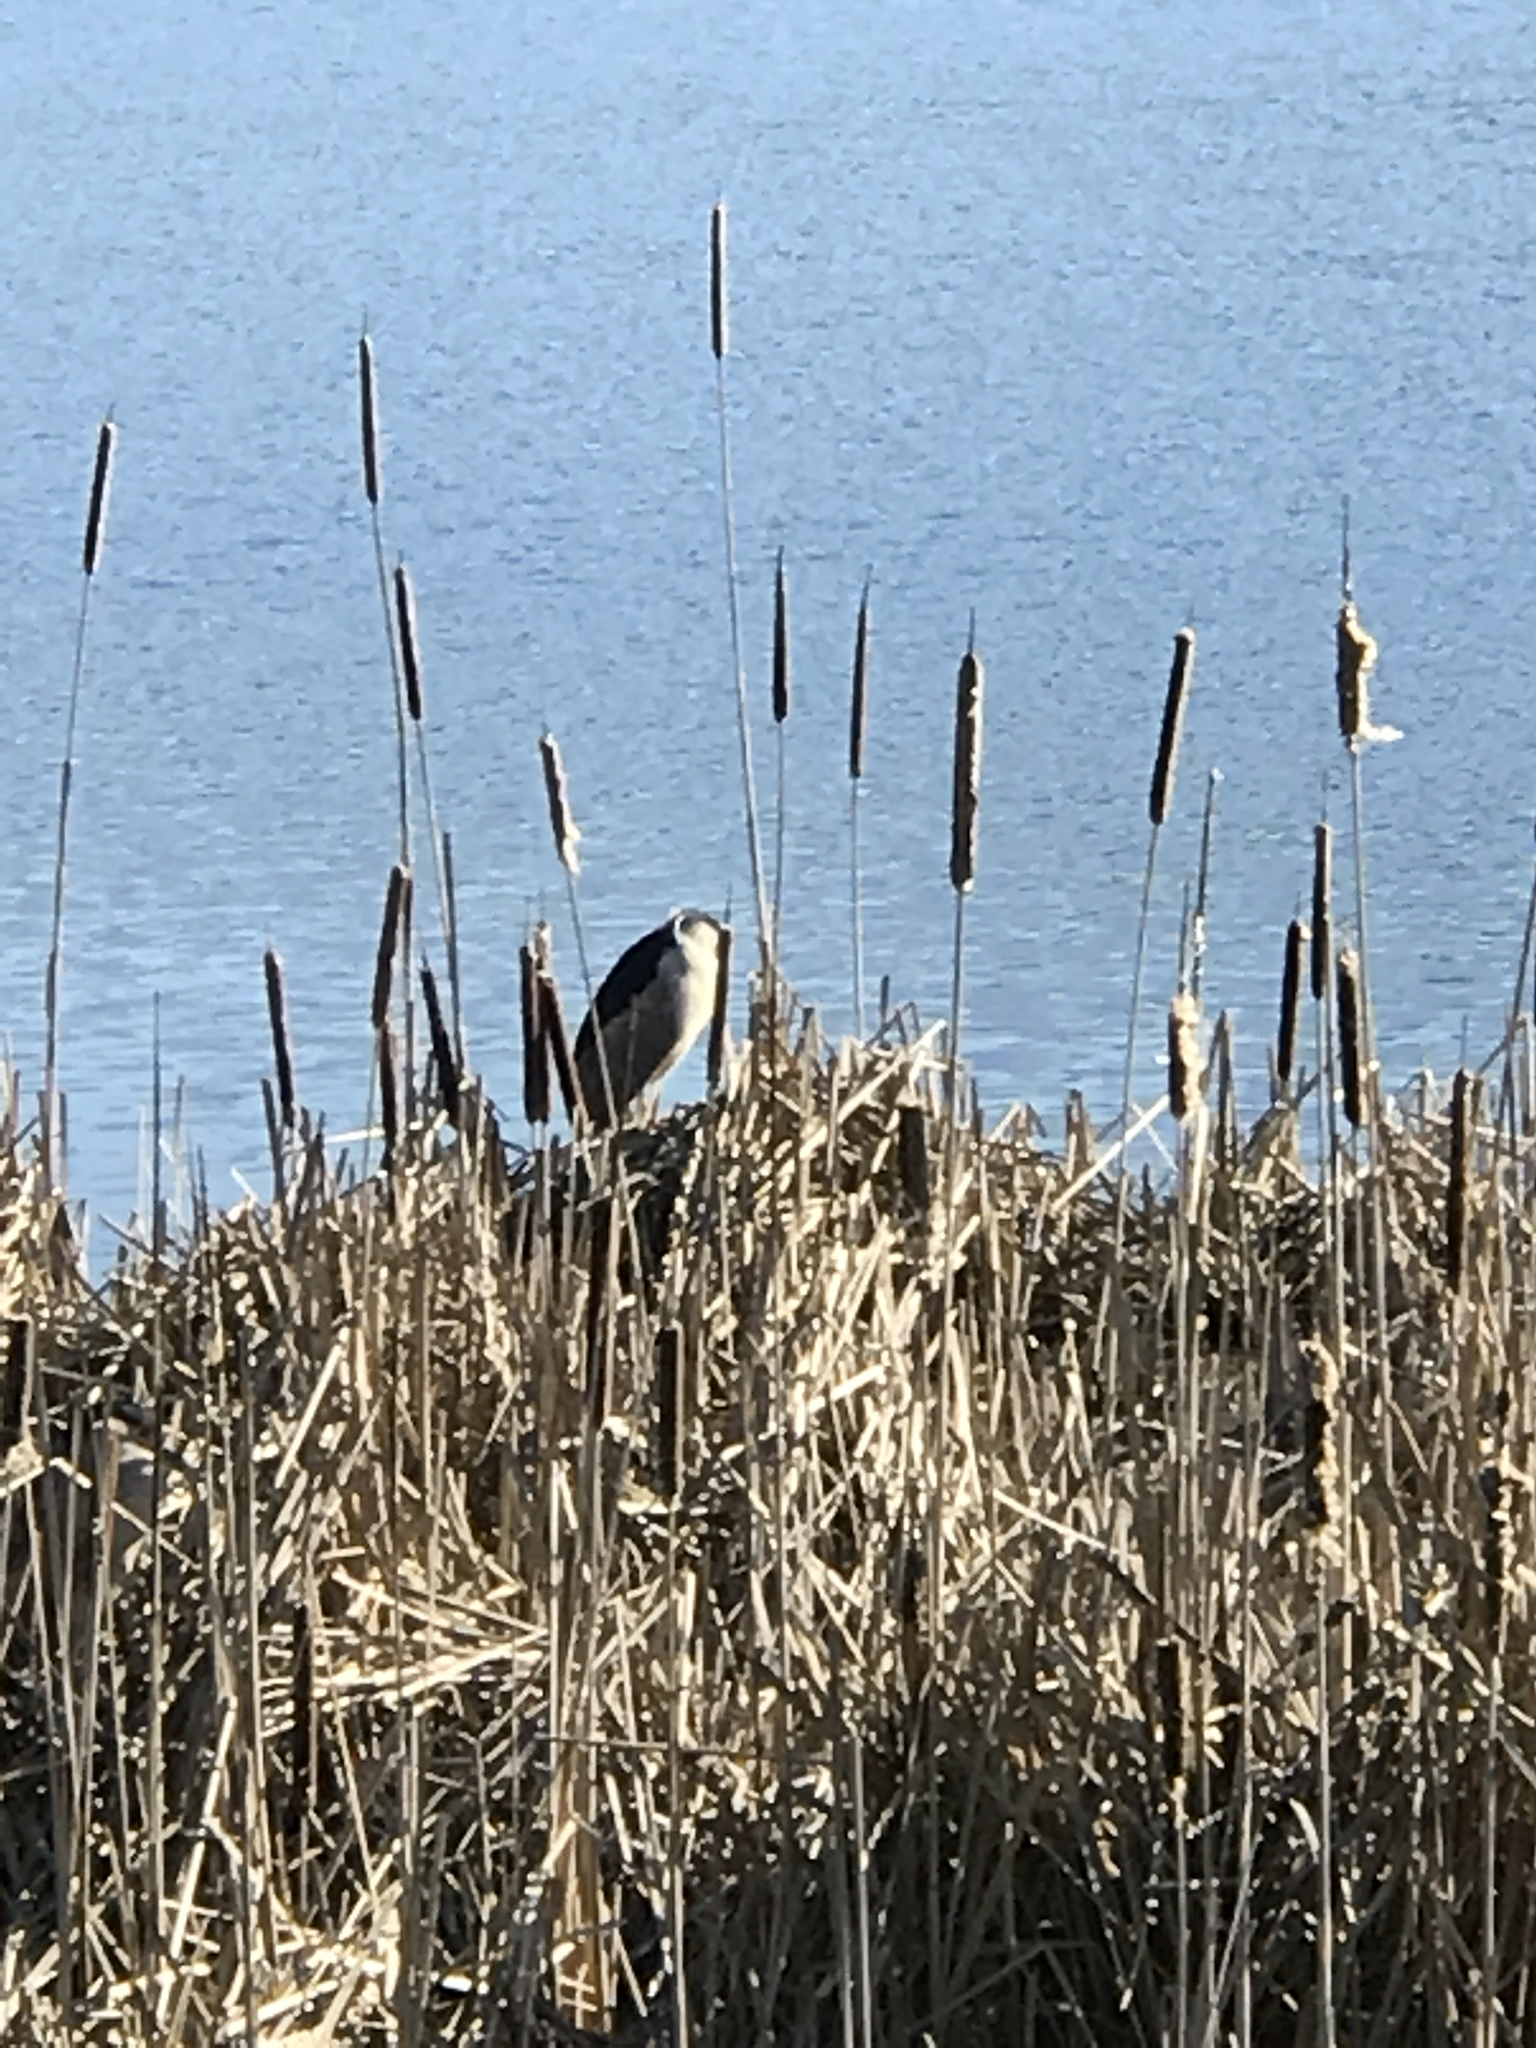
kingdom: Animalia
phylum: Chordata
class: Aves
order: Pelecaniformes
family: Ardeidae
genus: Nycticorax
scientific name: Nycticorax nycticorax
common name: Black-crowned night heron
